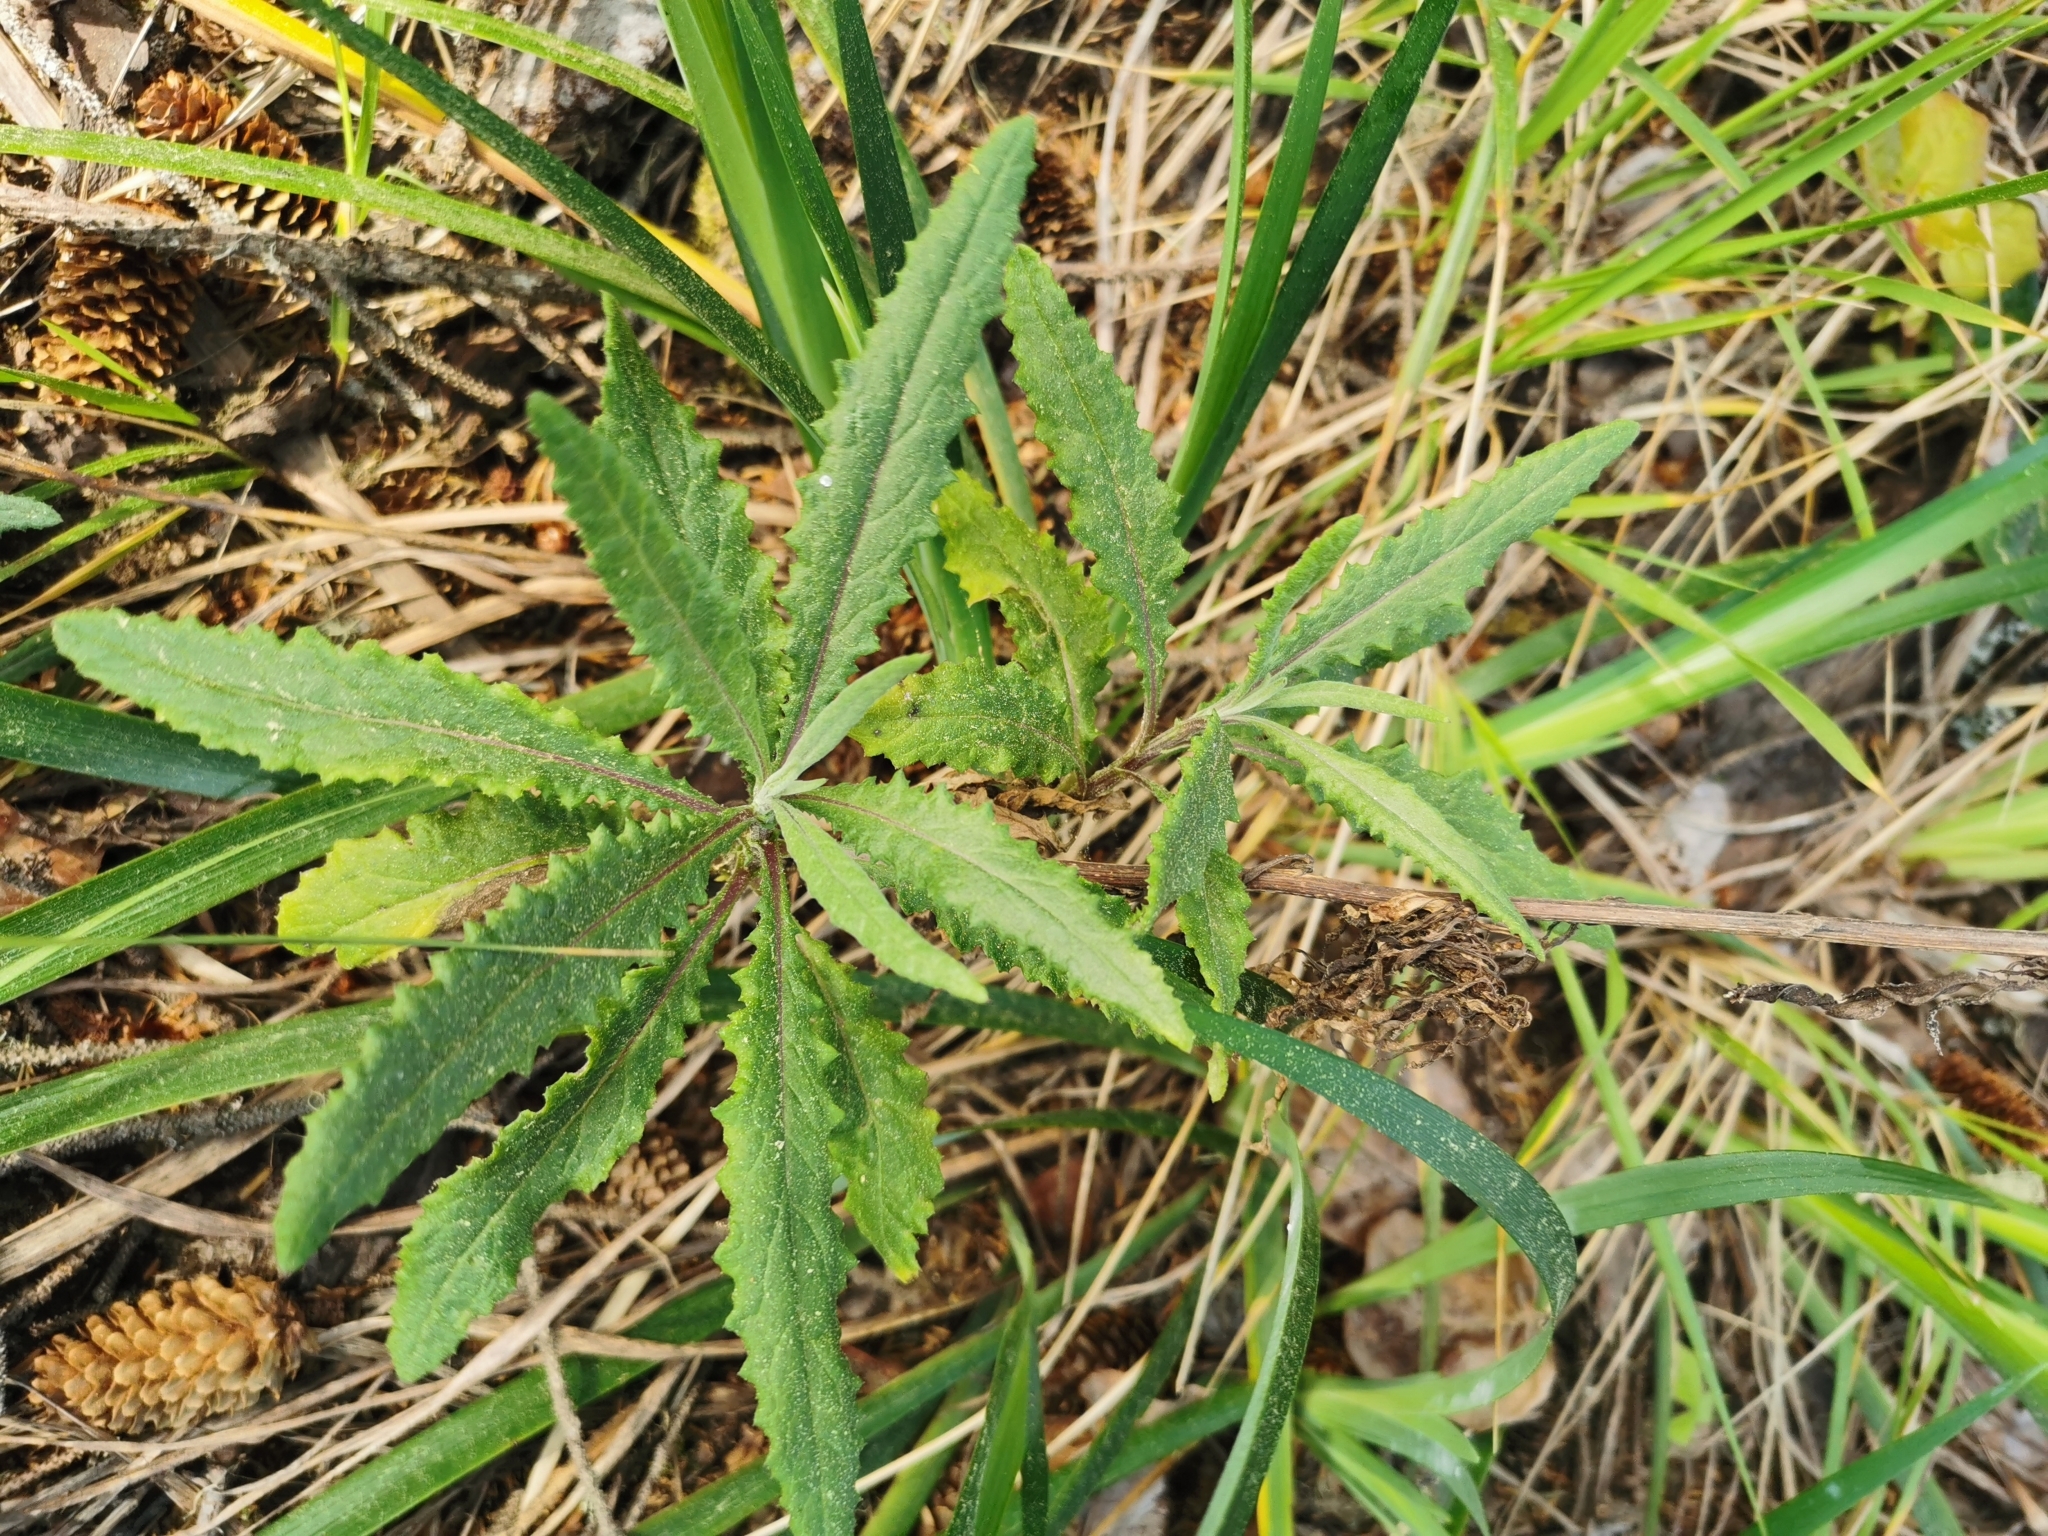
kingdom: Plantae
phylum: Tracheophyta
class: Magnoliopsida
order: Asterales
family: Asteraceae
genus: Senecio
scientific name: Senecio minimus
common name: Toothed fireweed
